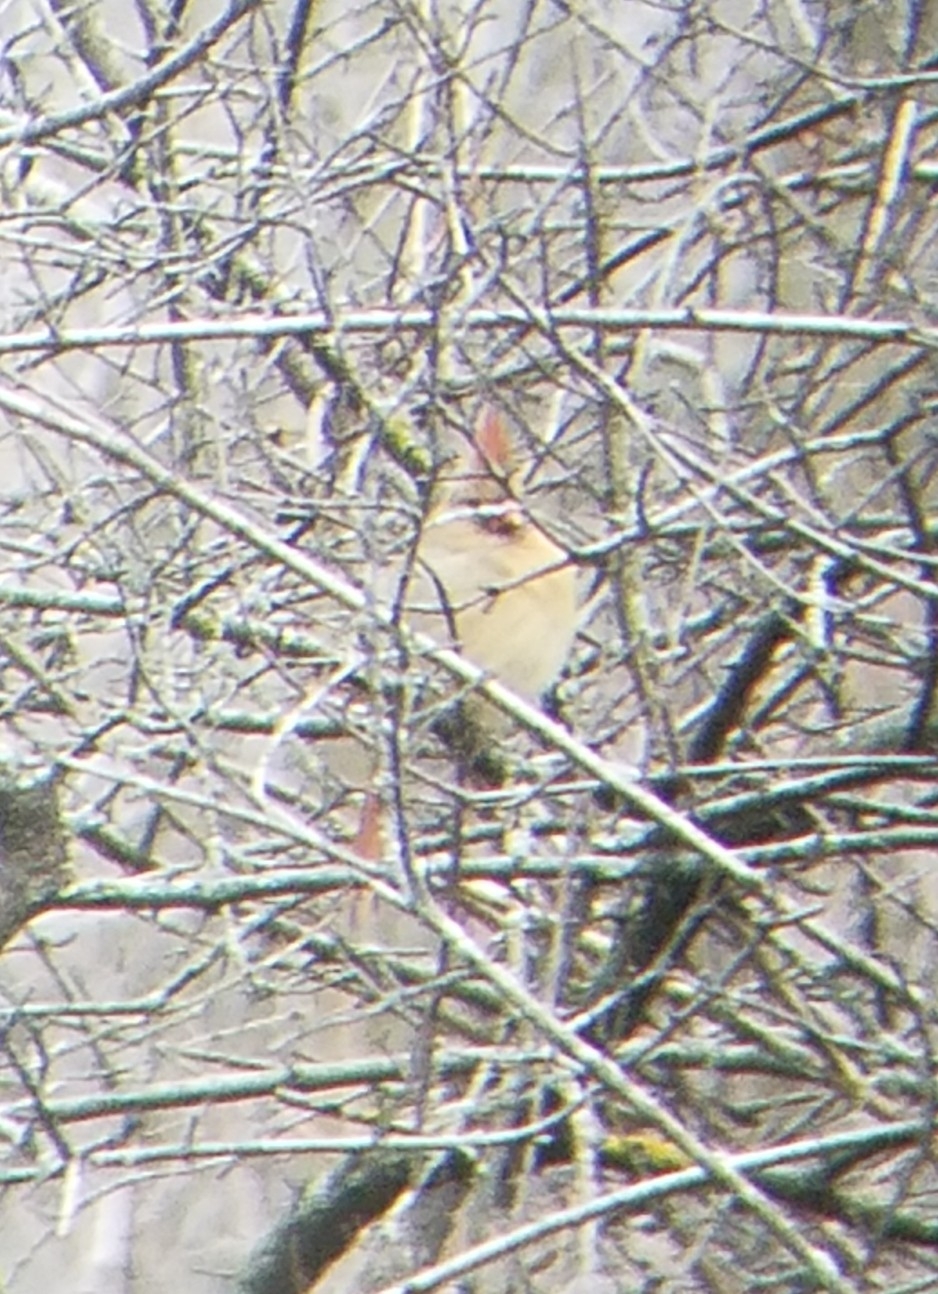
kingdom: Animalia
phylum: Chordata
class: Aves
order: Passeriformes
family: Cardinalidae
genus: Cardinalis
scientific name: Cardinalis cardinalis
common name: Northern cardinal
